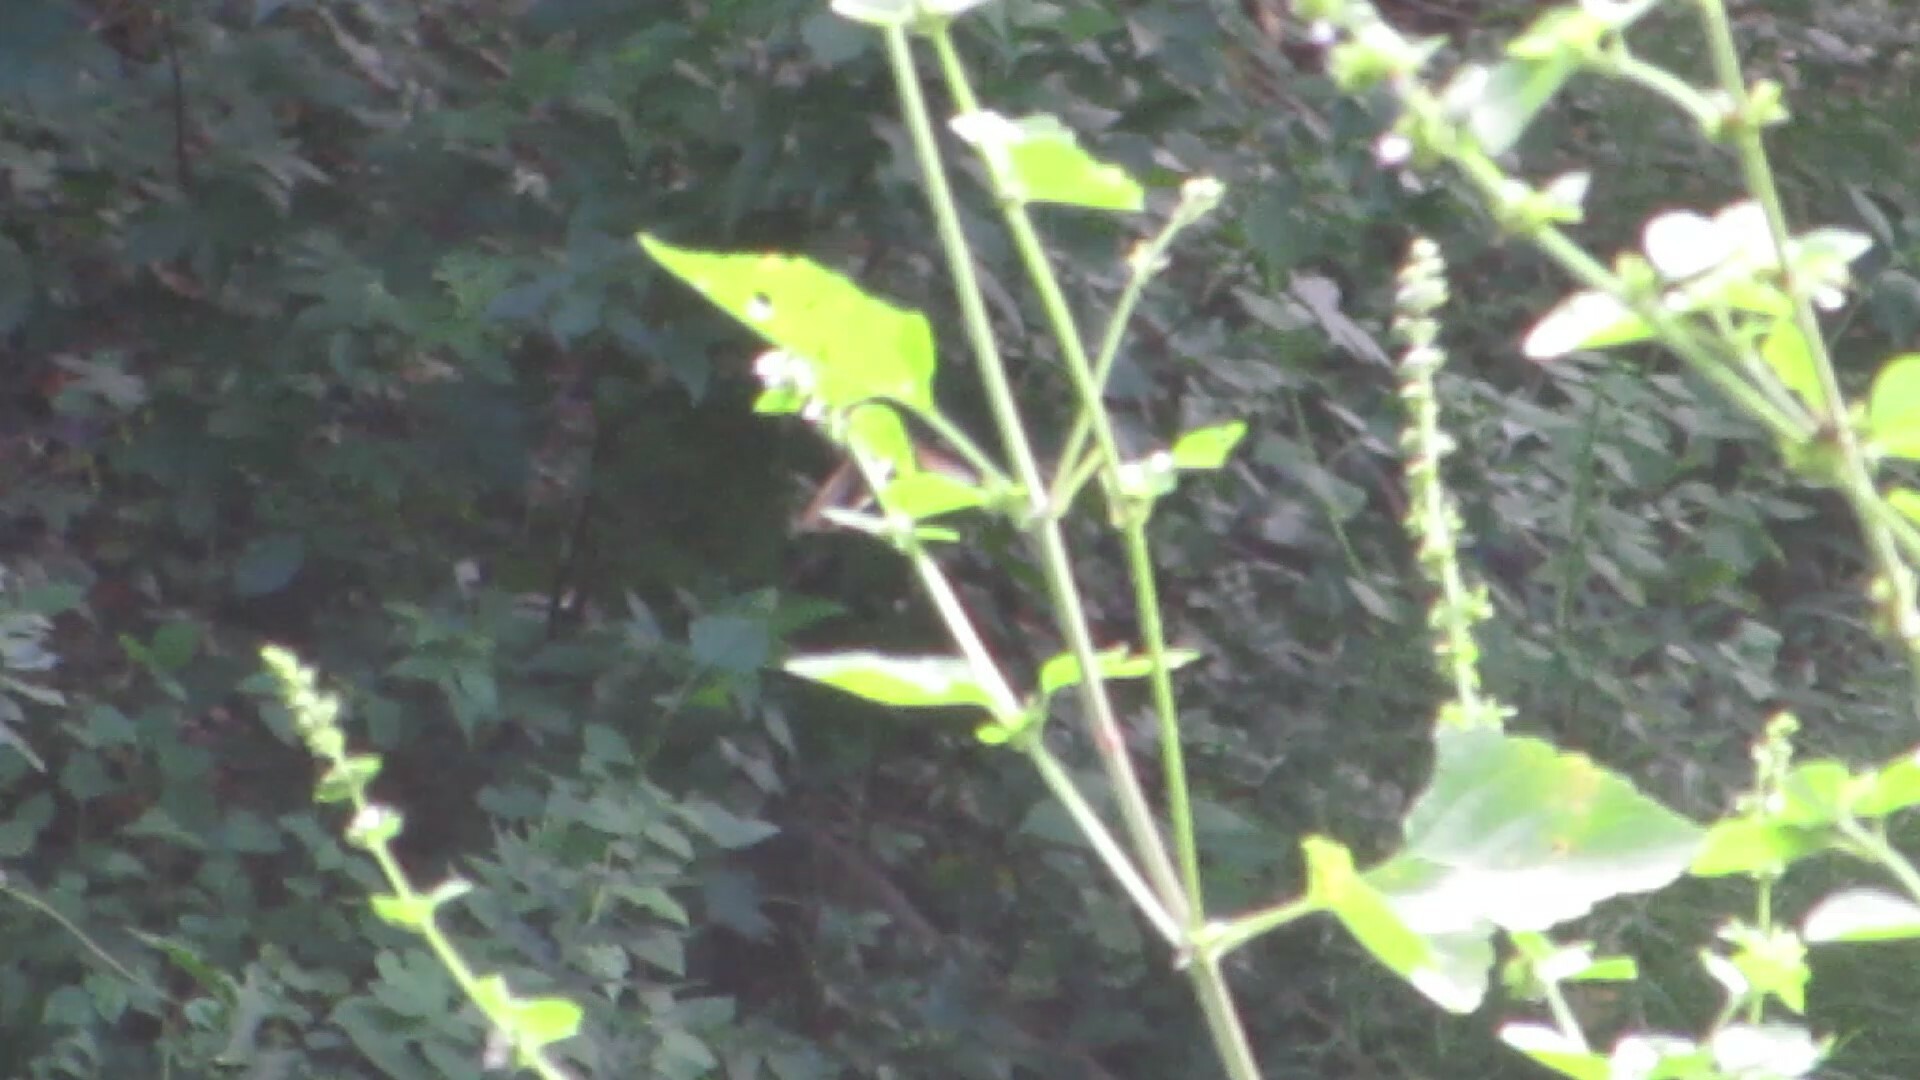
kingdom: Animalia
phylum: Arthropoda
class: Insecta
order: Hymenoptera
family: Apidae
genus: Bombus
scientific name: Bombus pensylvanicus
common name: Bumble bee
